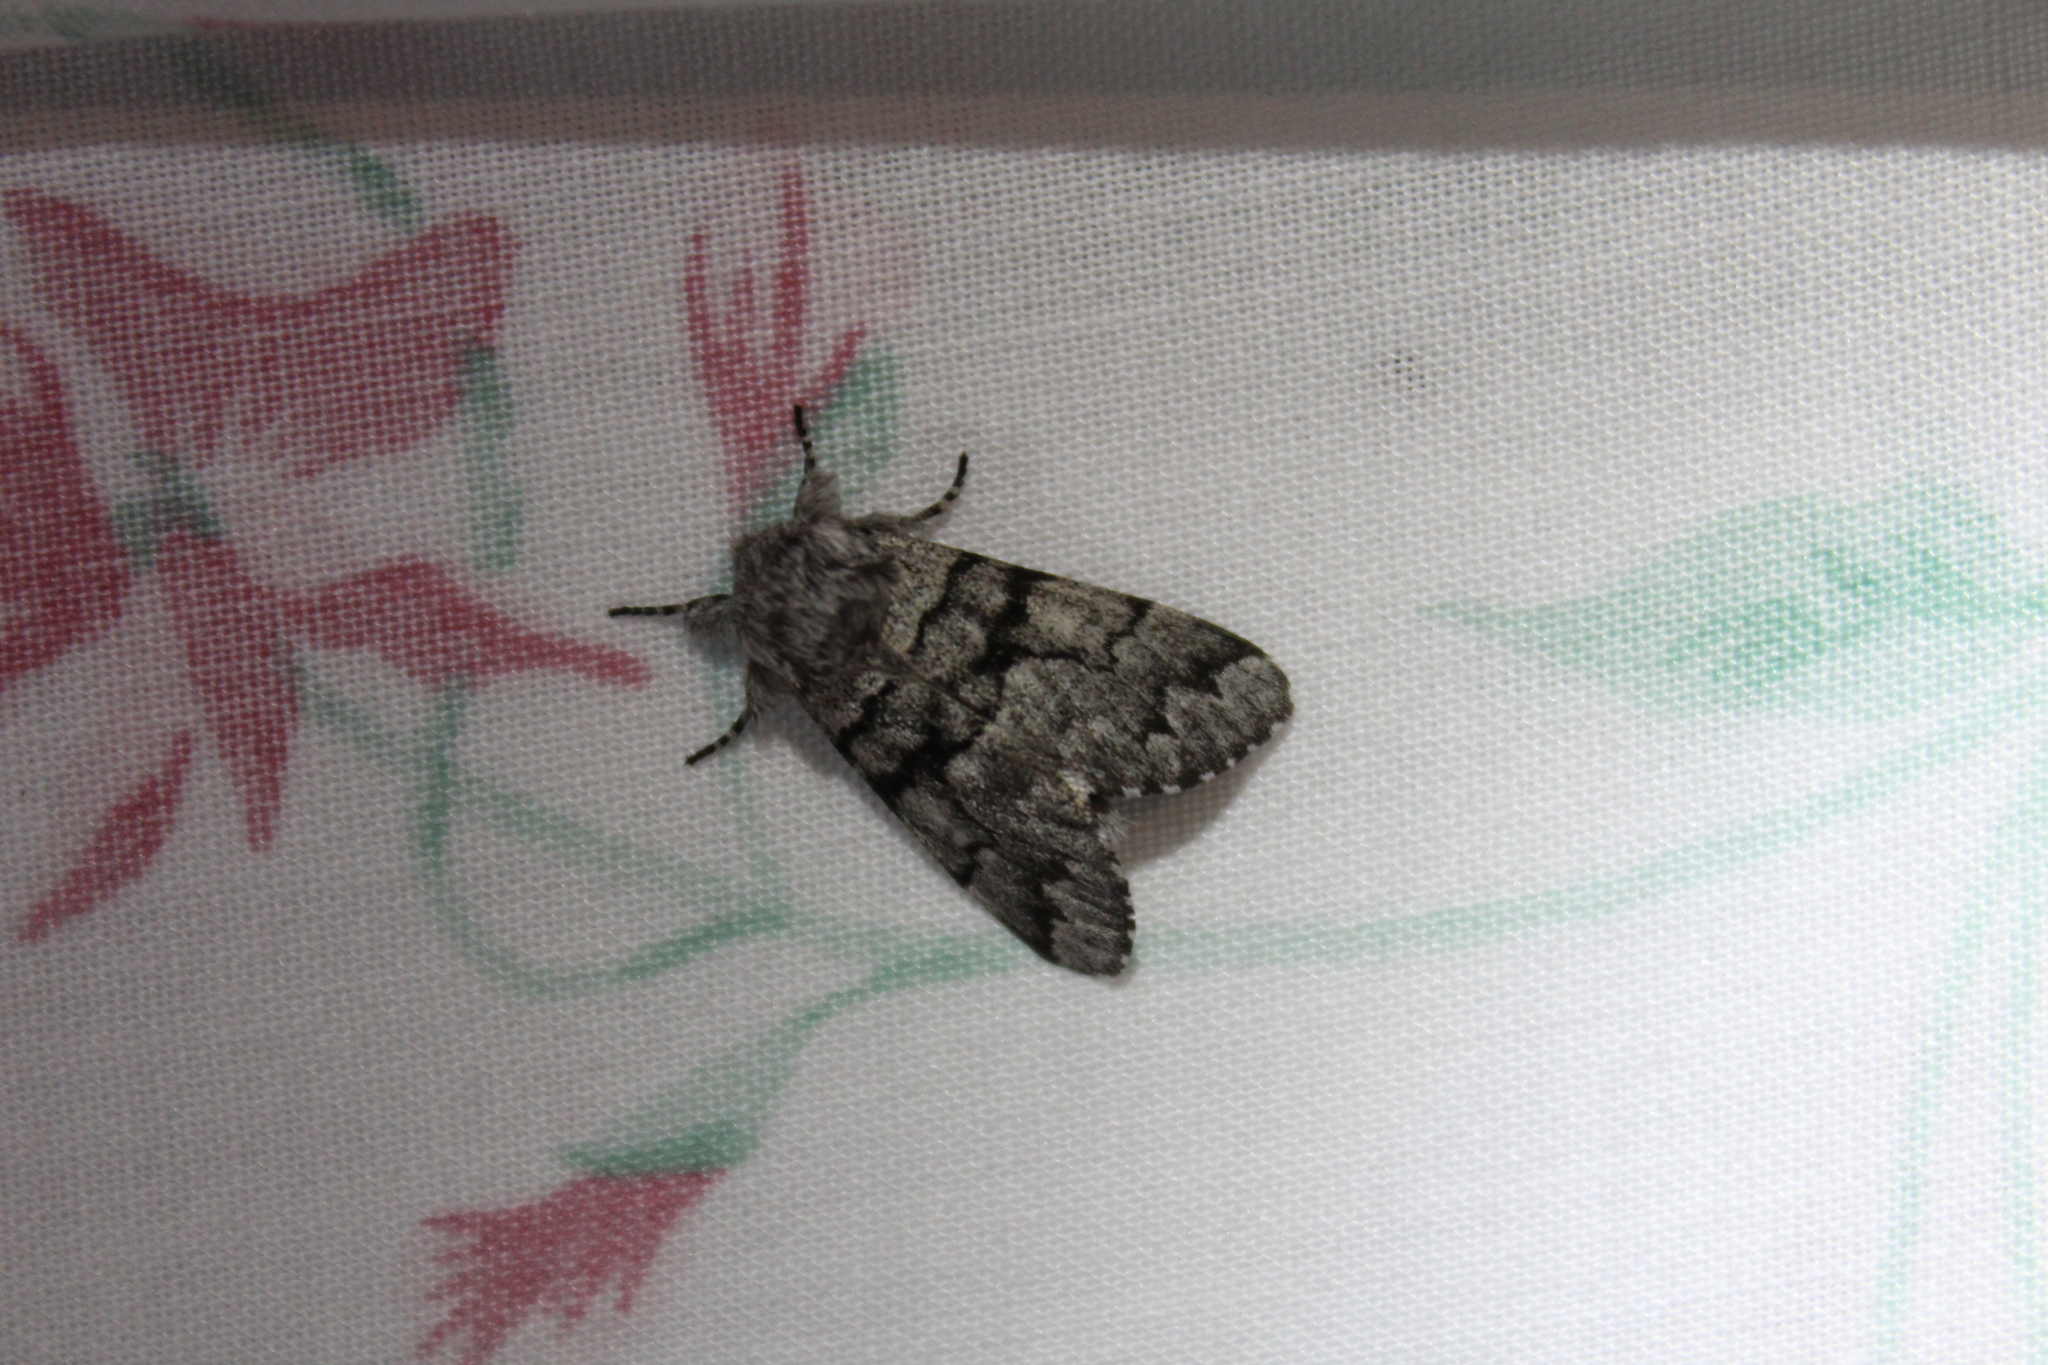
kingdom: Animalia
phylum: Arthropoda
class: Insecta
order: Lepidoptera
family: Noctuidae
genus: Panthea
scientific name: Panthea furcilla
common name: Eastern panthea moth
